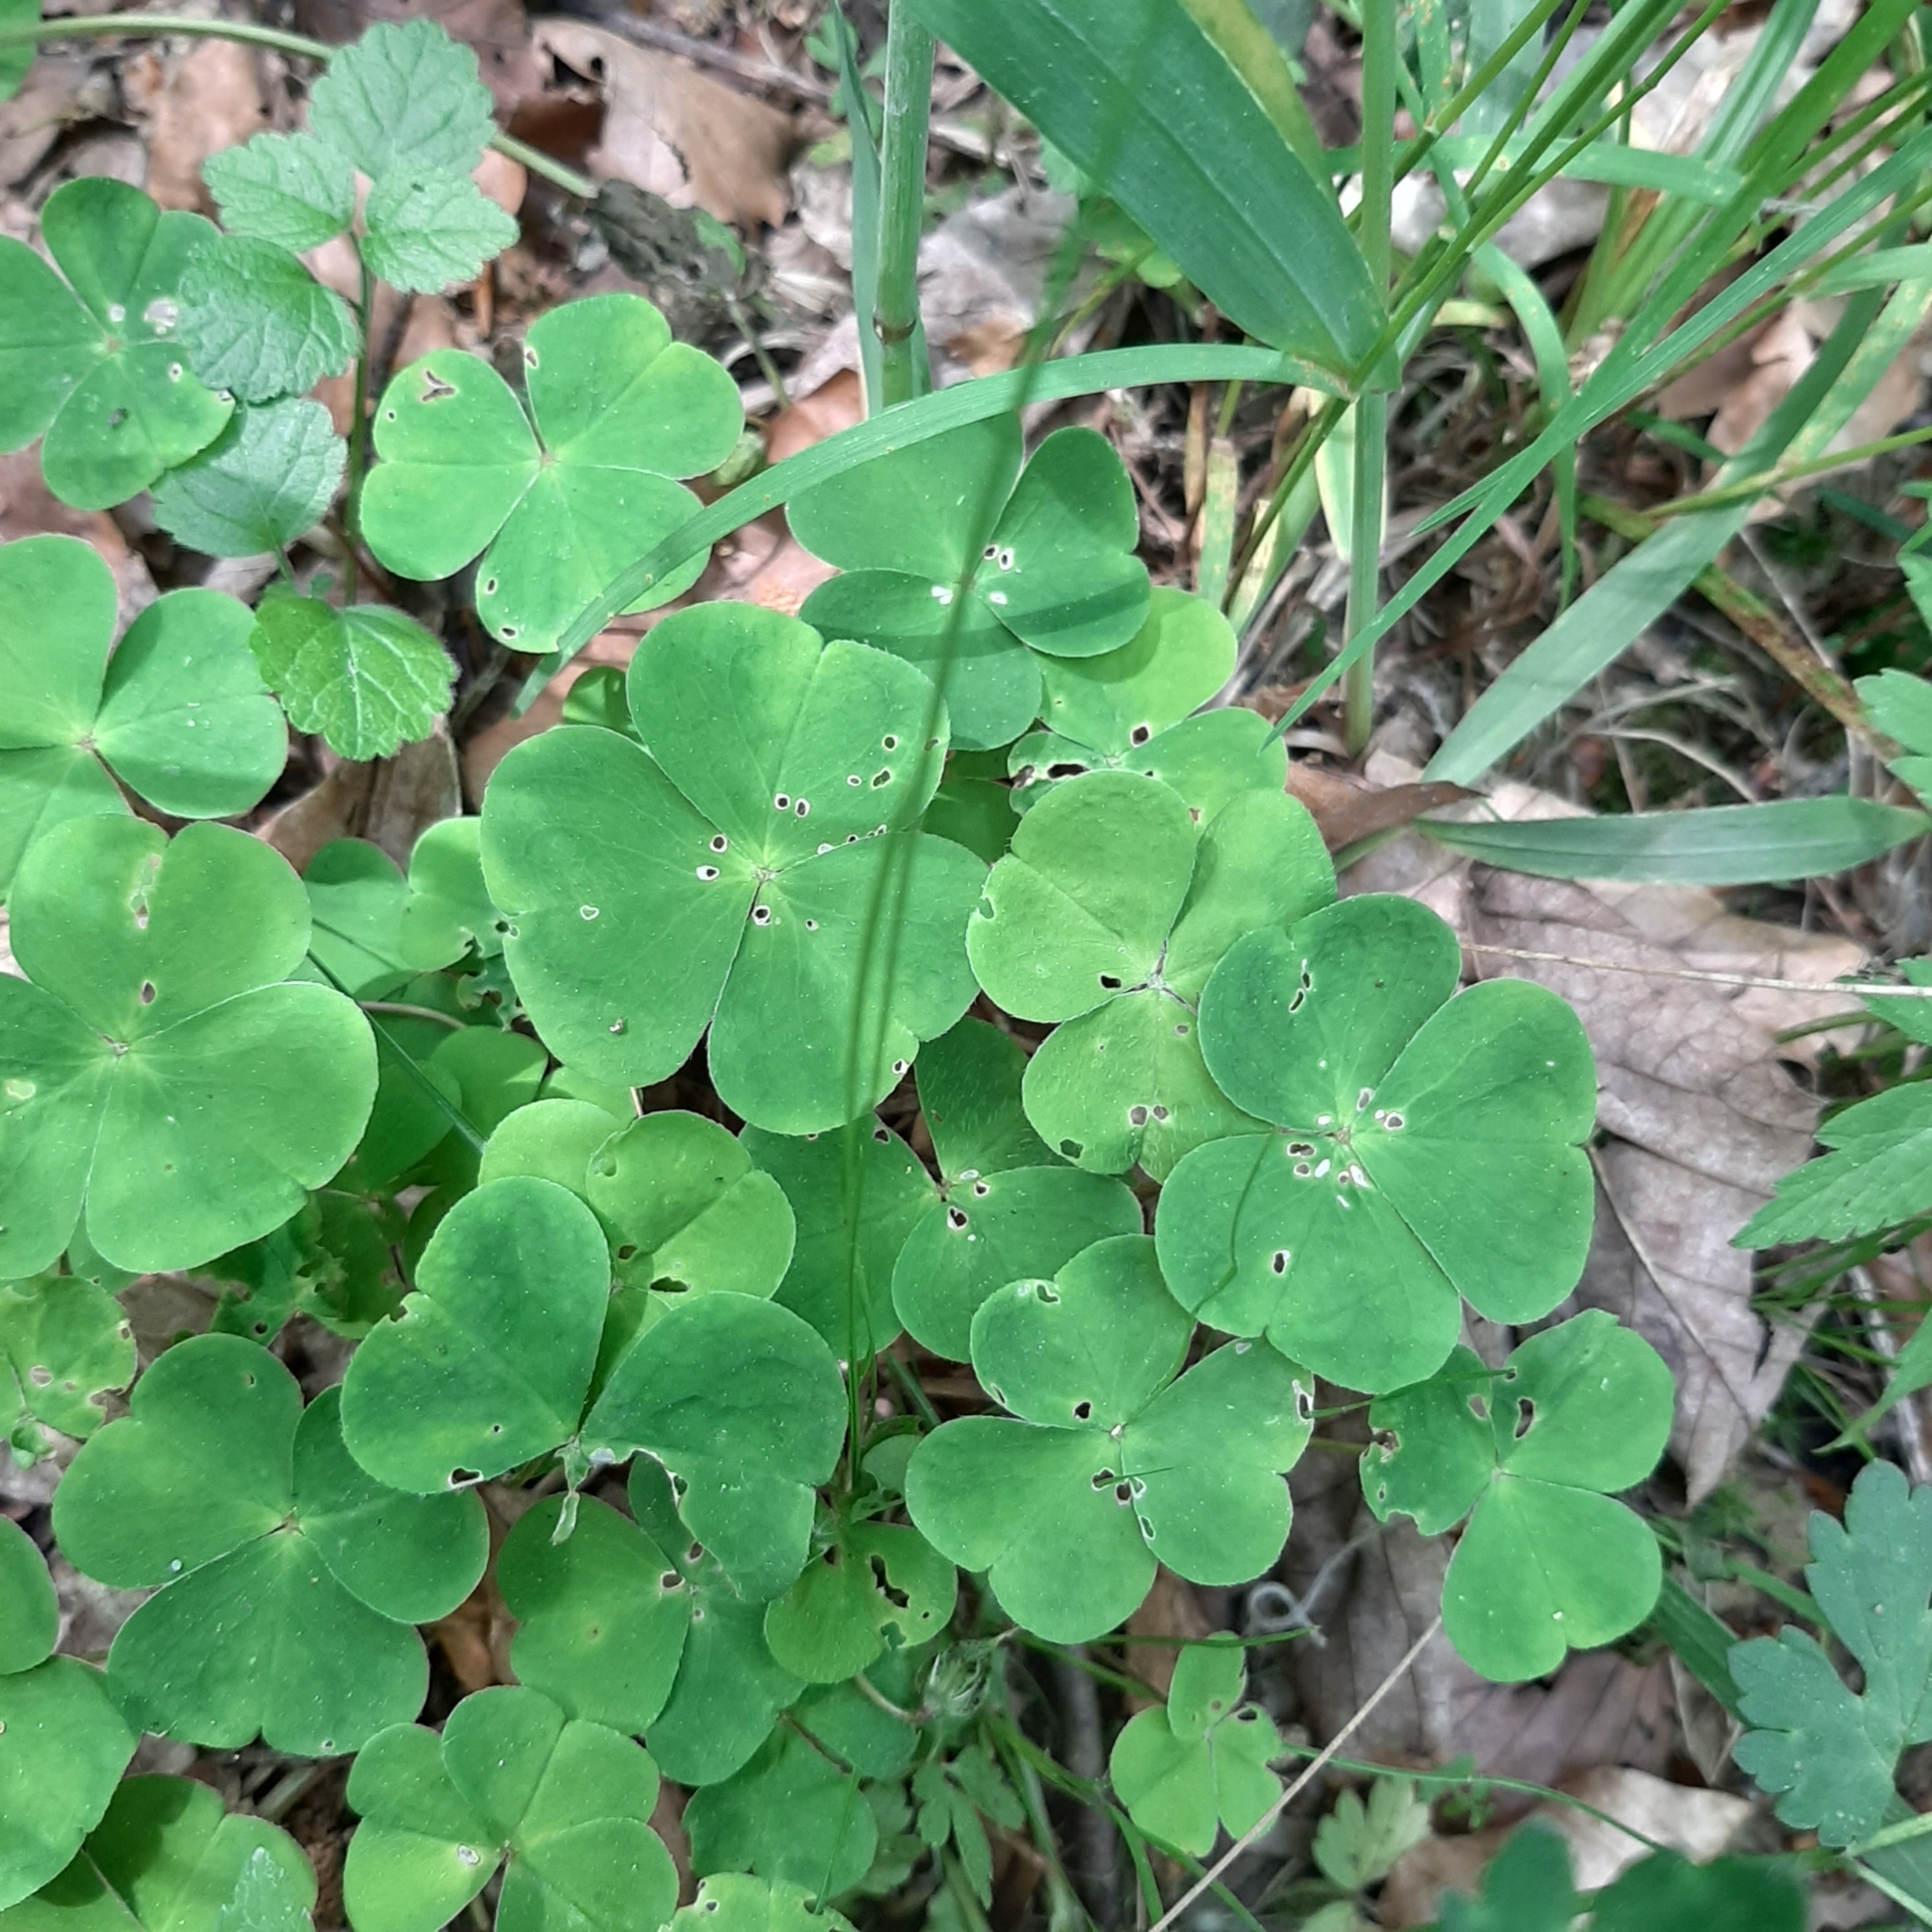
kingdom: Plantae
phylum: Tracheophyta
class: Magnoliopsida
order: Oxalidales
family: Oxalidaceae
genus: Oxalis
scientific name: Oxalis acetosella
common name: Wood-sorrel
